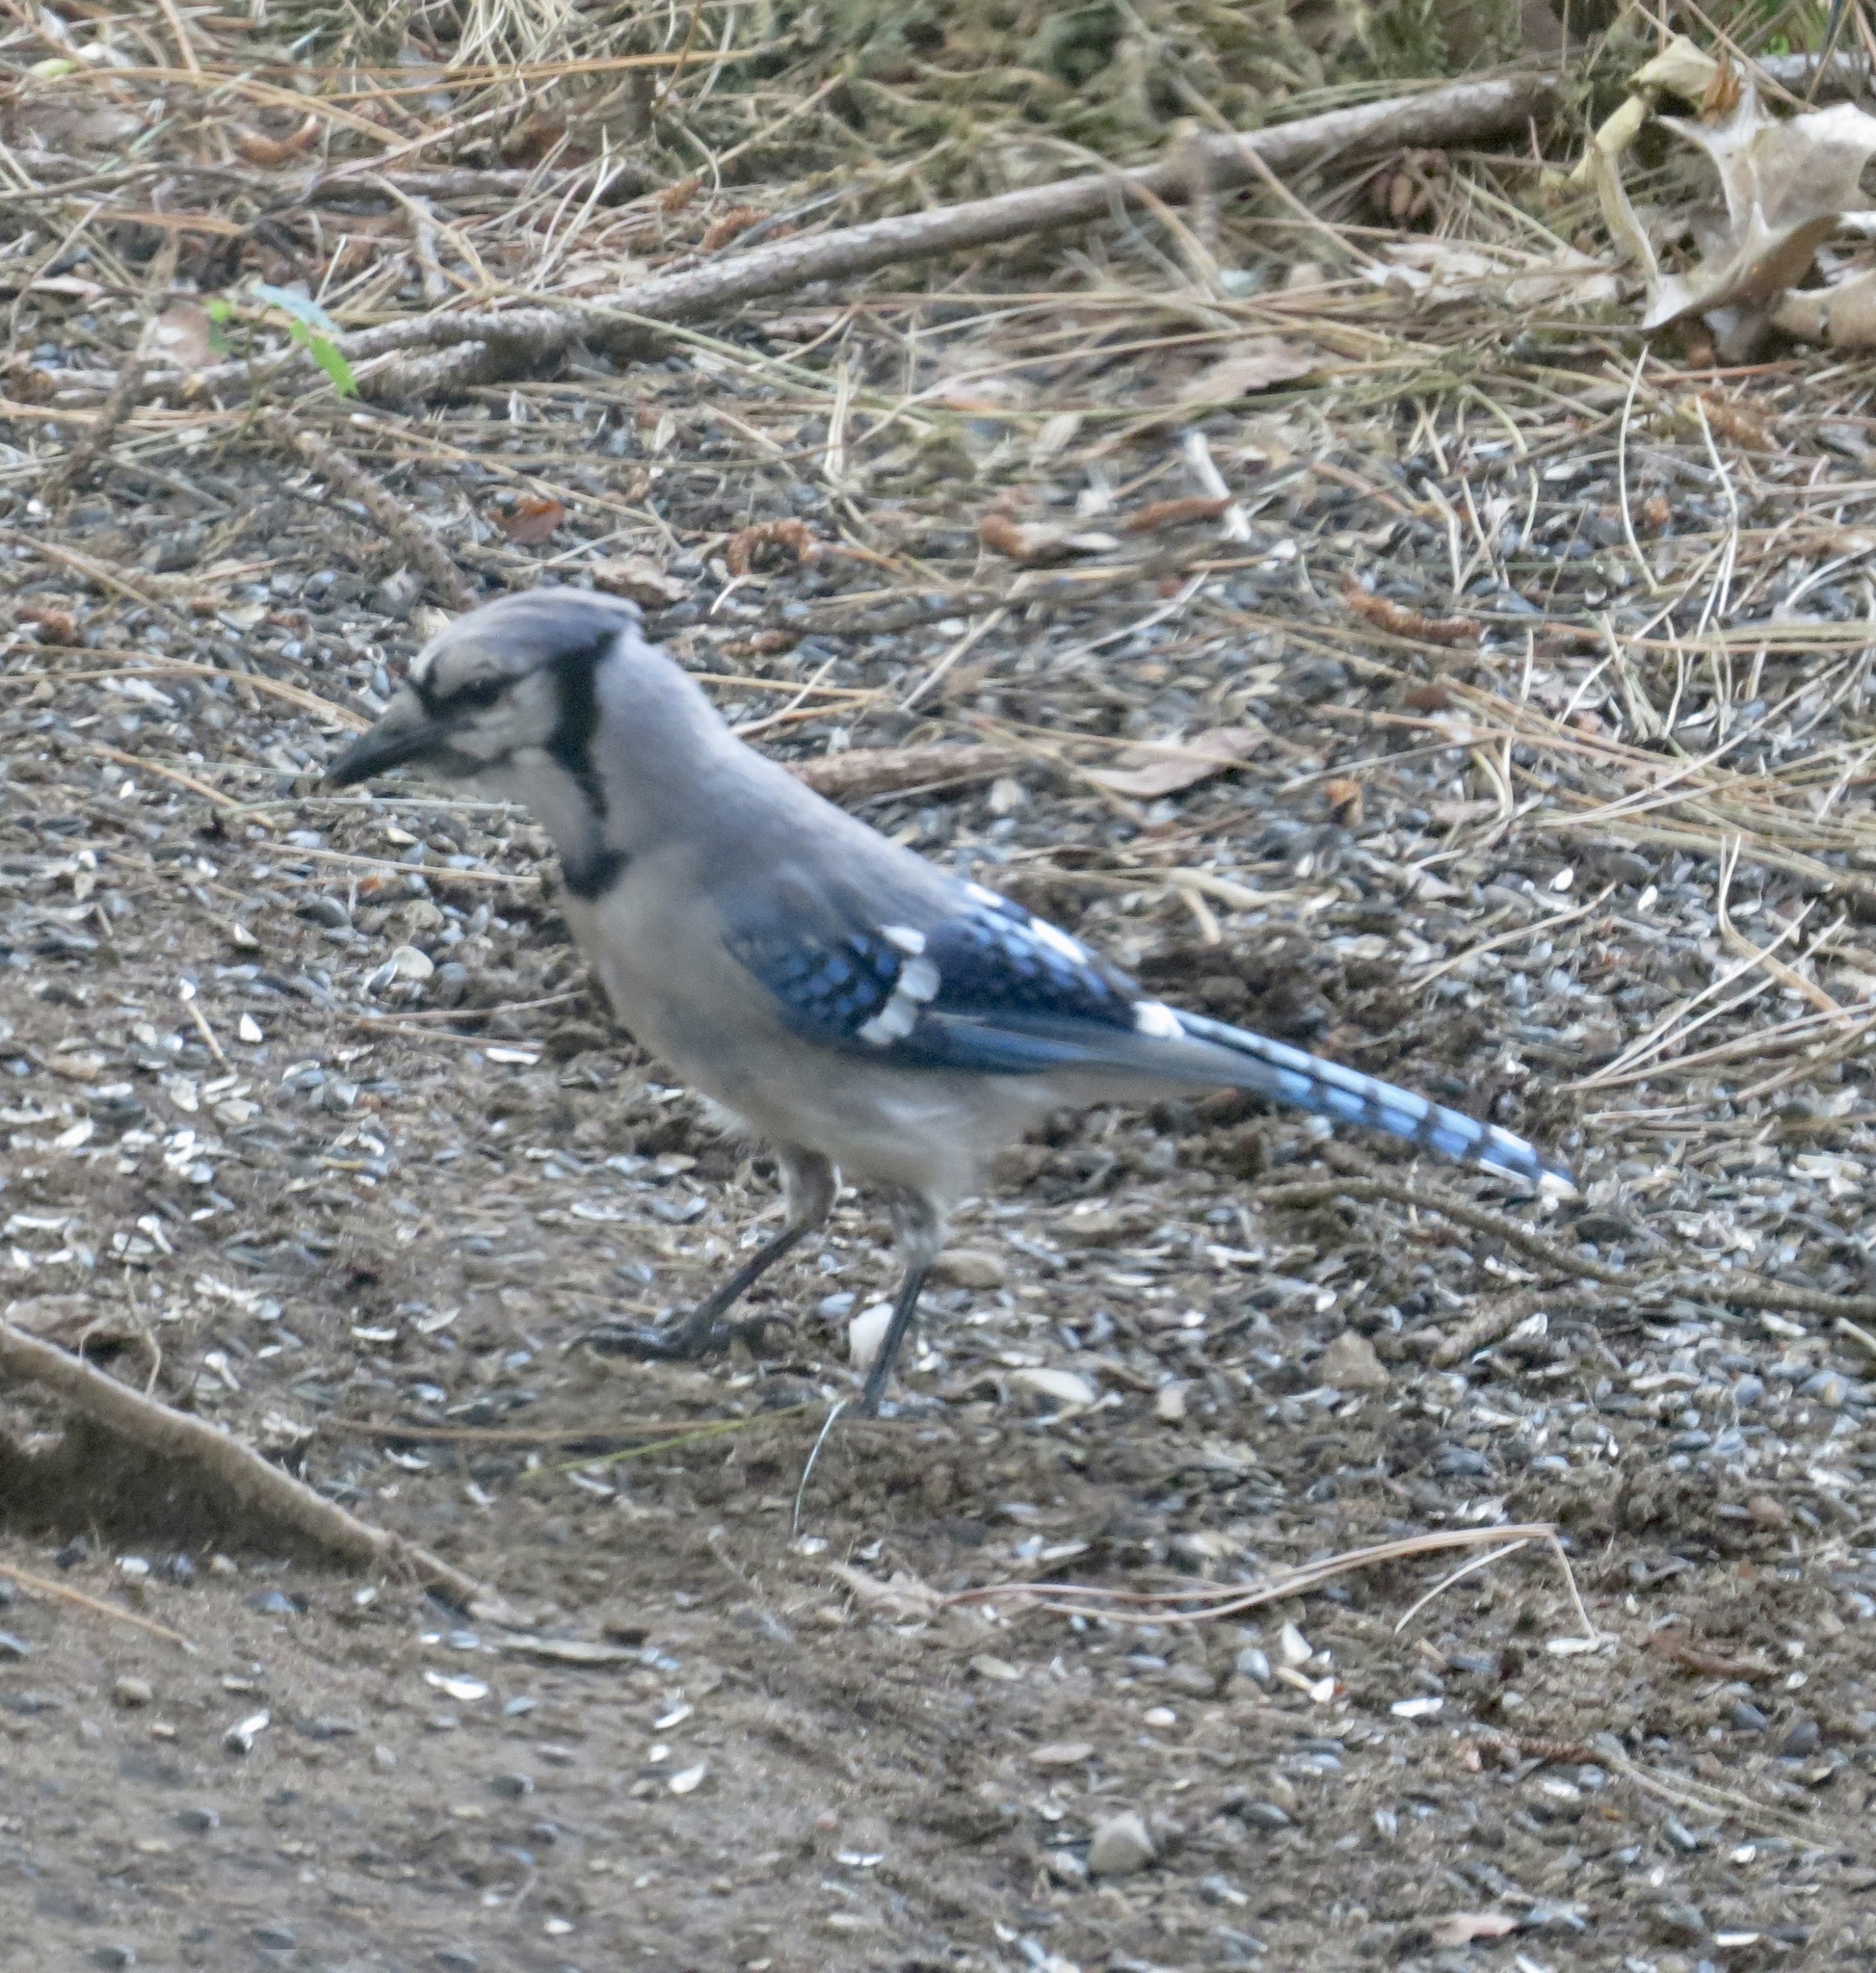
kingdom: Animalia
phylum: Chordata
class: Aves
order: Passeriformes
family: Corvidae
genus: Cyanocitta
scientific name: Cyanocitta cristata
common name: Blue jay
